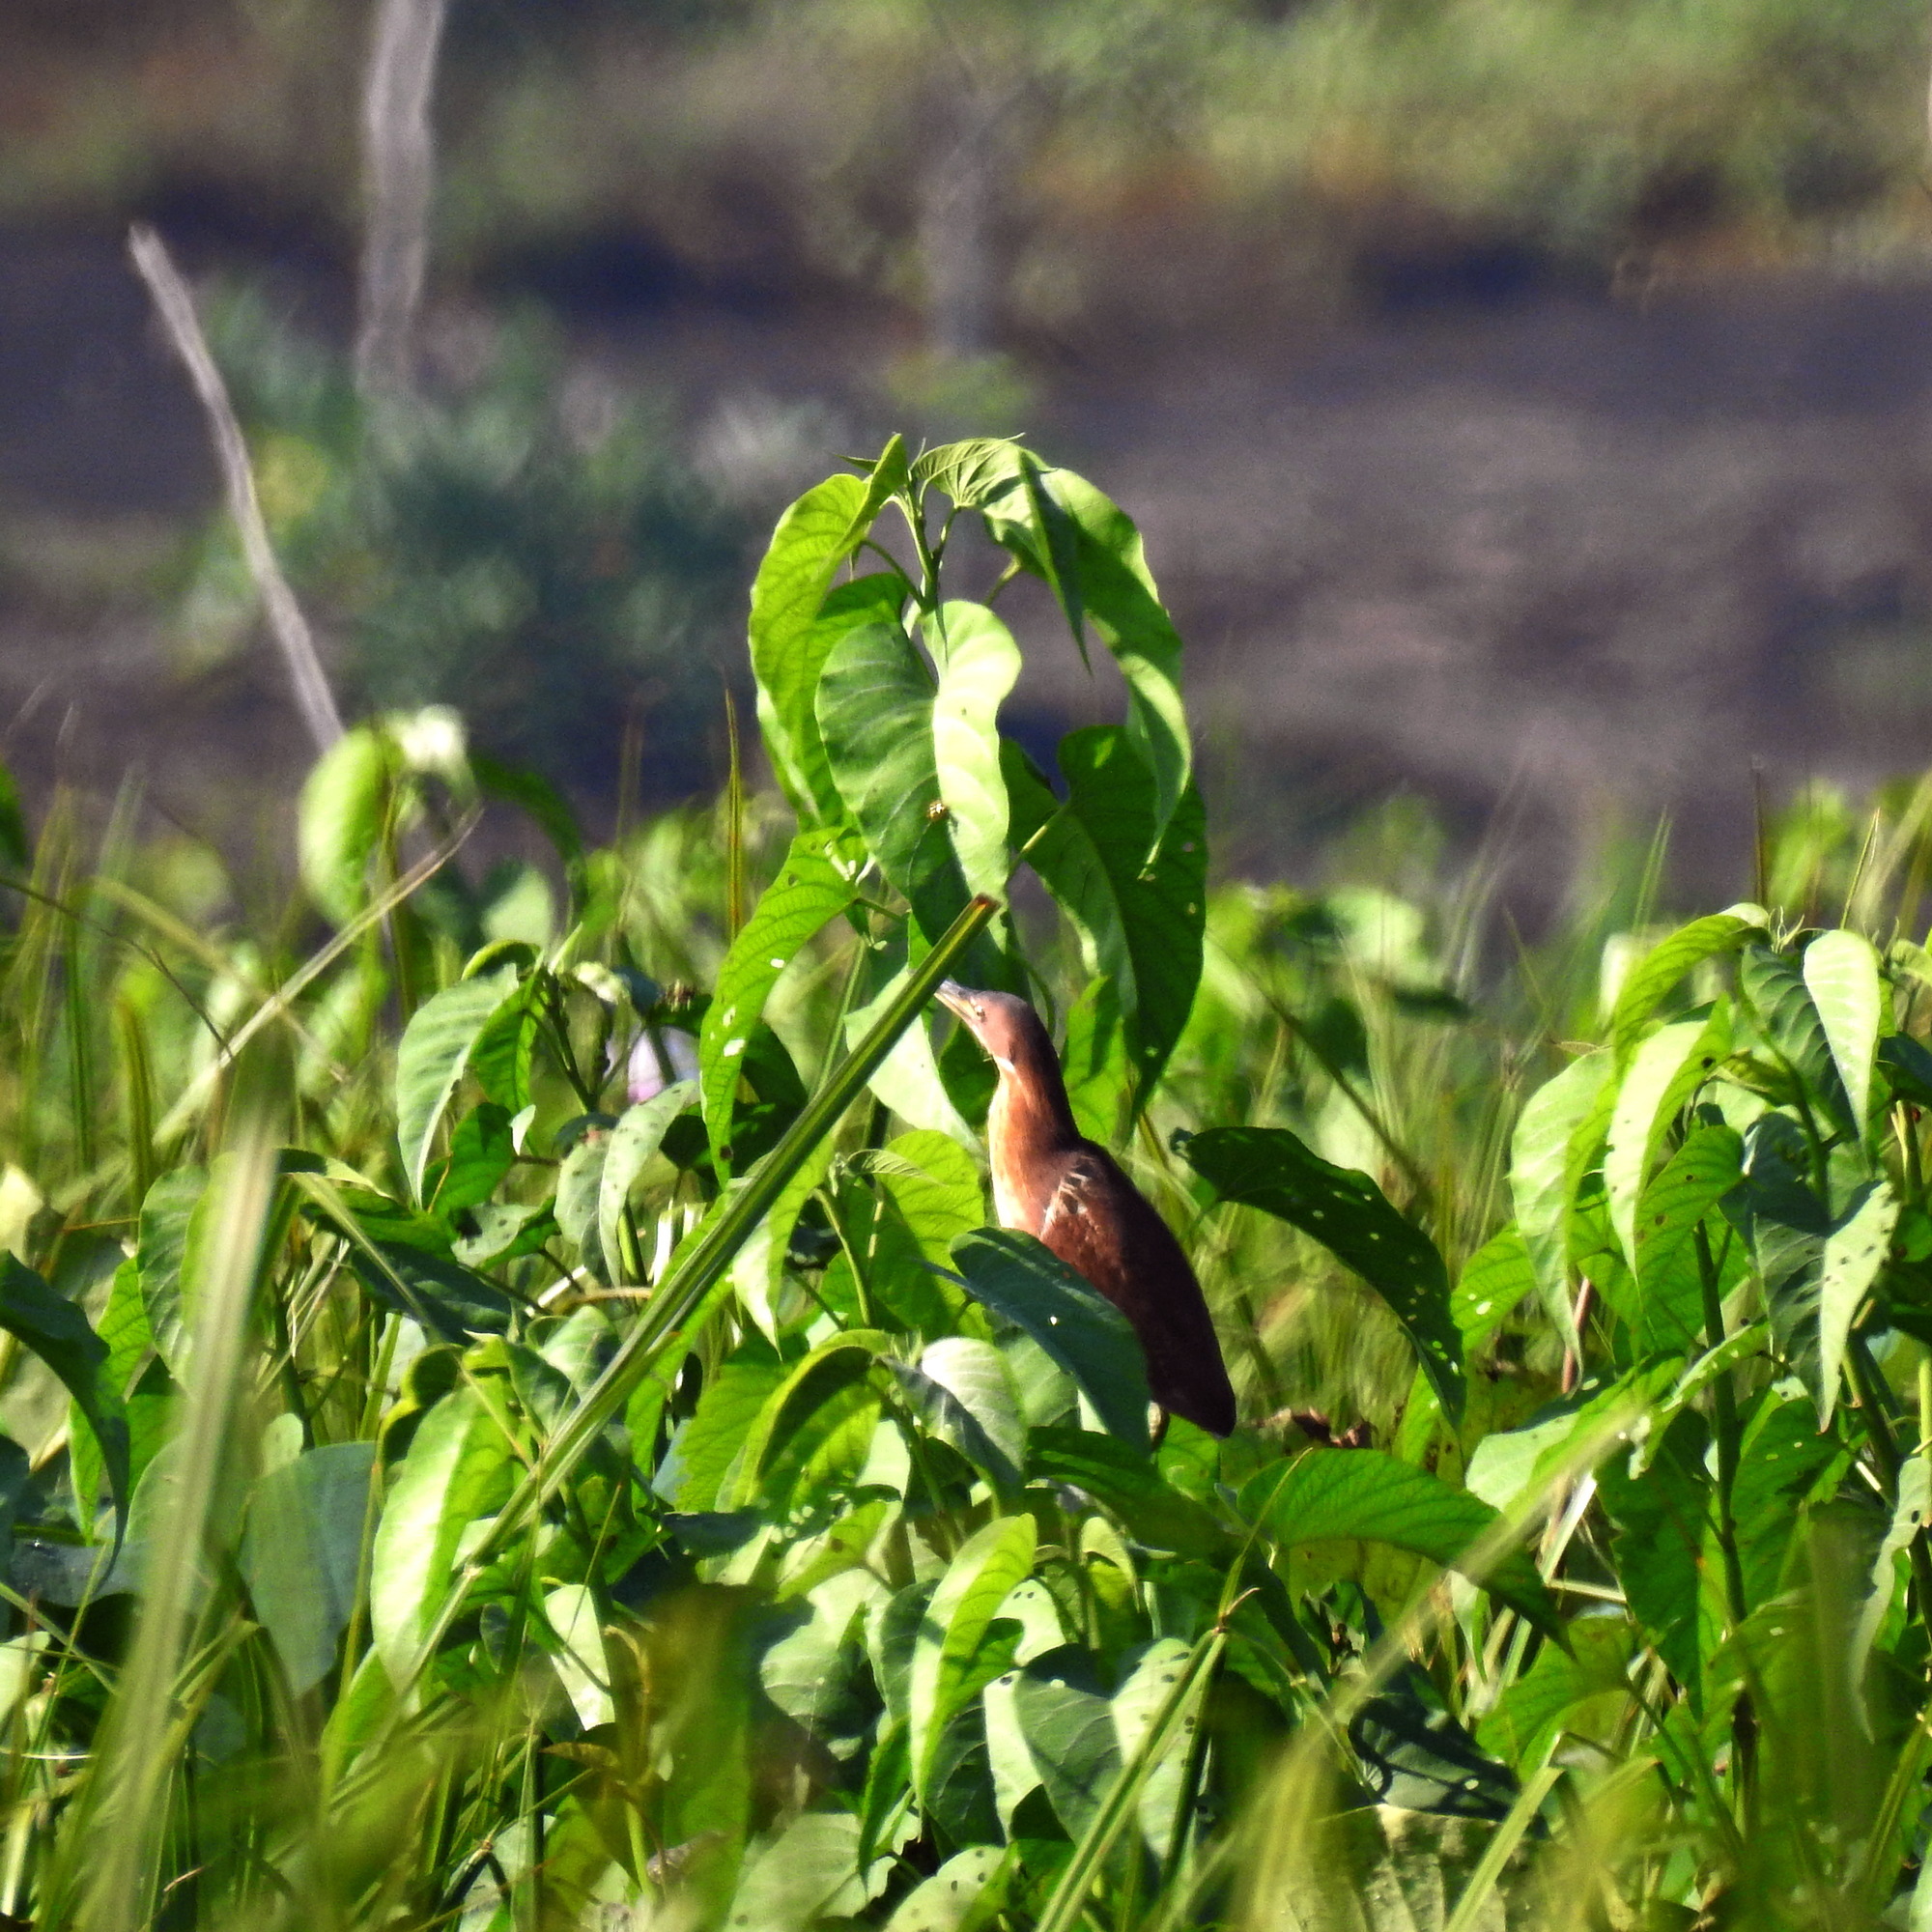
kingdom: Animalia
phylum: Chordata
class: Aves
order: Pelecaniformes
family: Ardeidae
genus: Ixobrychus
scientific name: Ixobrychus cinnamomeus
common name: Cinnamon bittern
